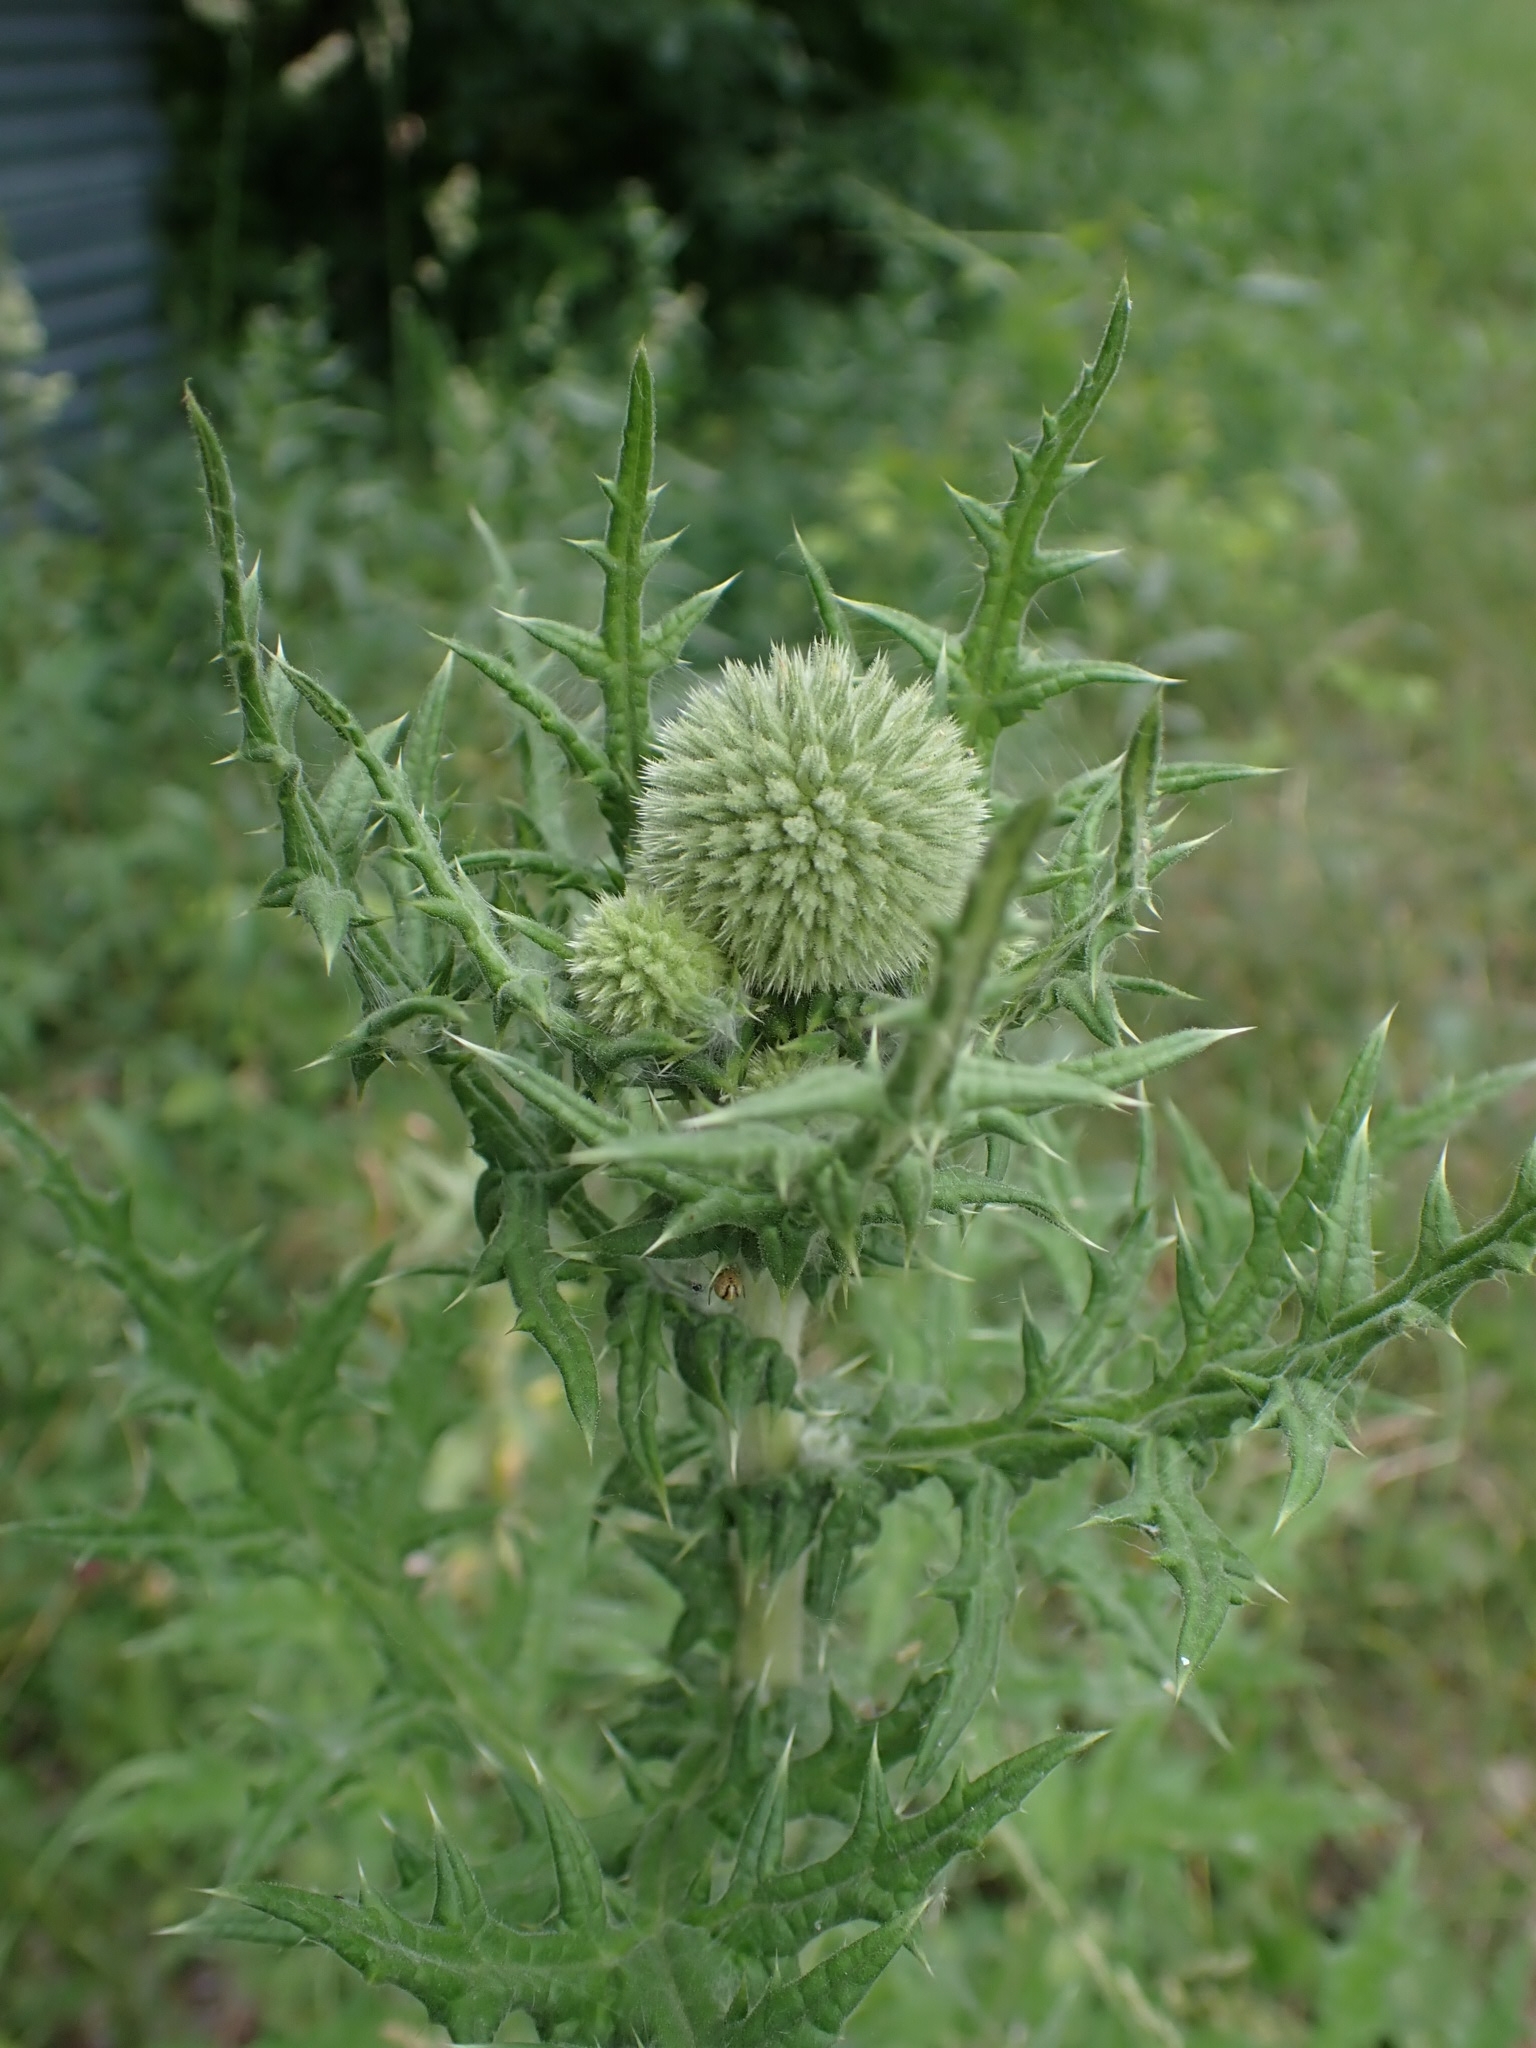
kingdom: Plantae
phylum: Tracheophyta
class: Magnoliopsida
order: Asterales
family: Asteraceae
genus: Echinops
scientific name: Echinops sphaerocephalus
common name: Glandular globe-thistle
